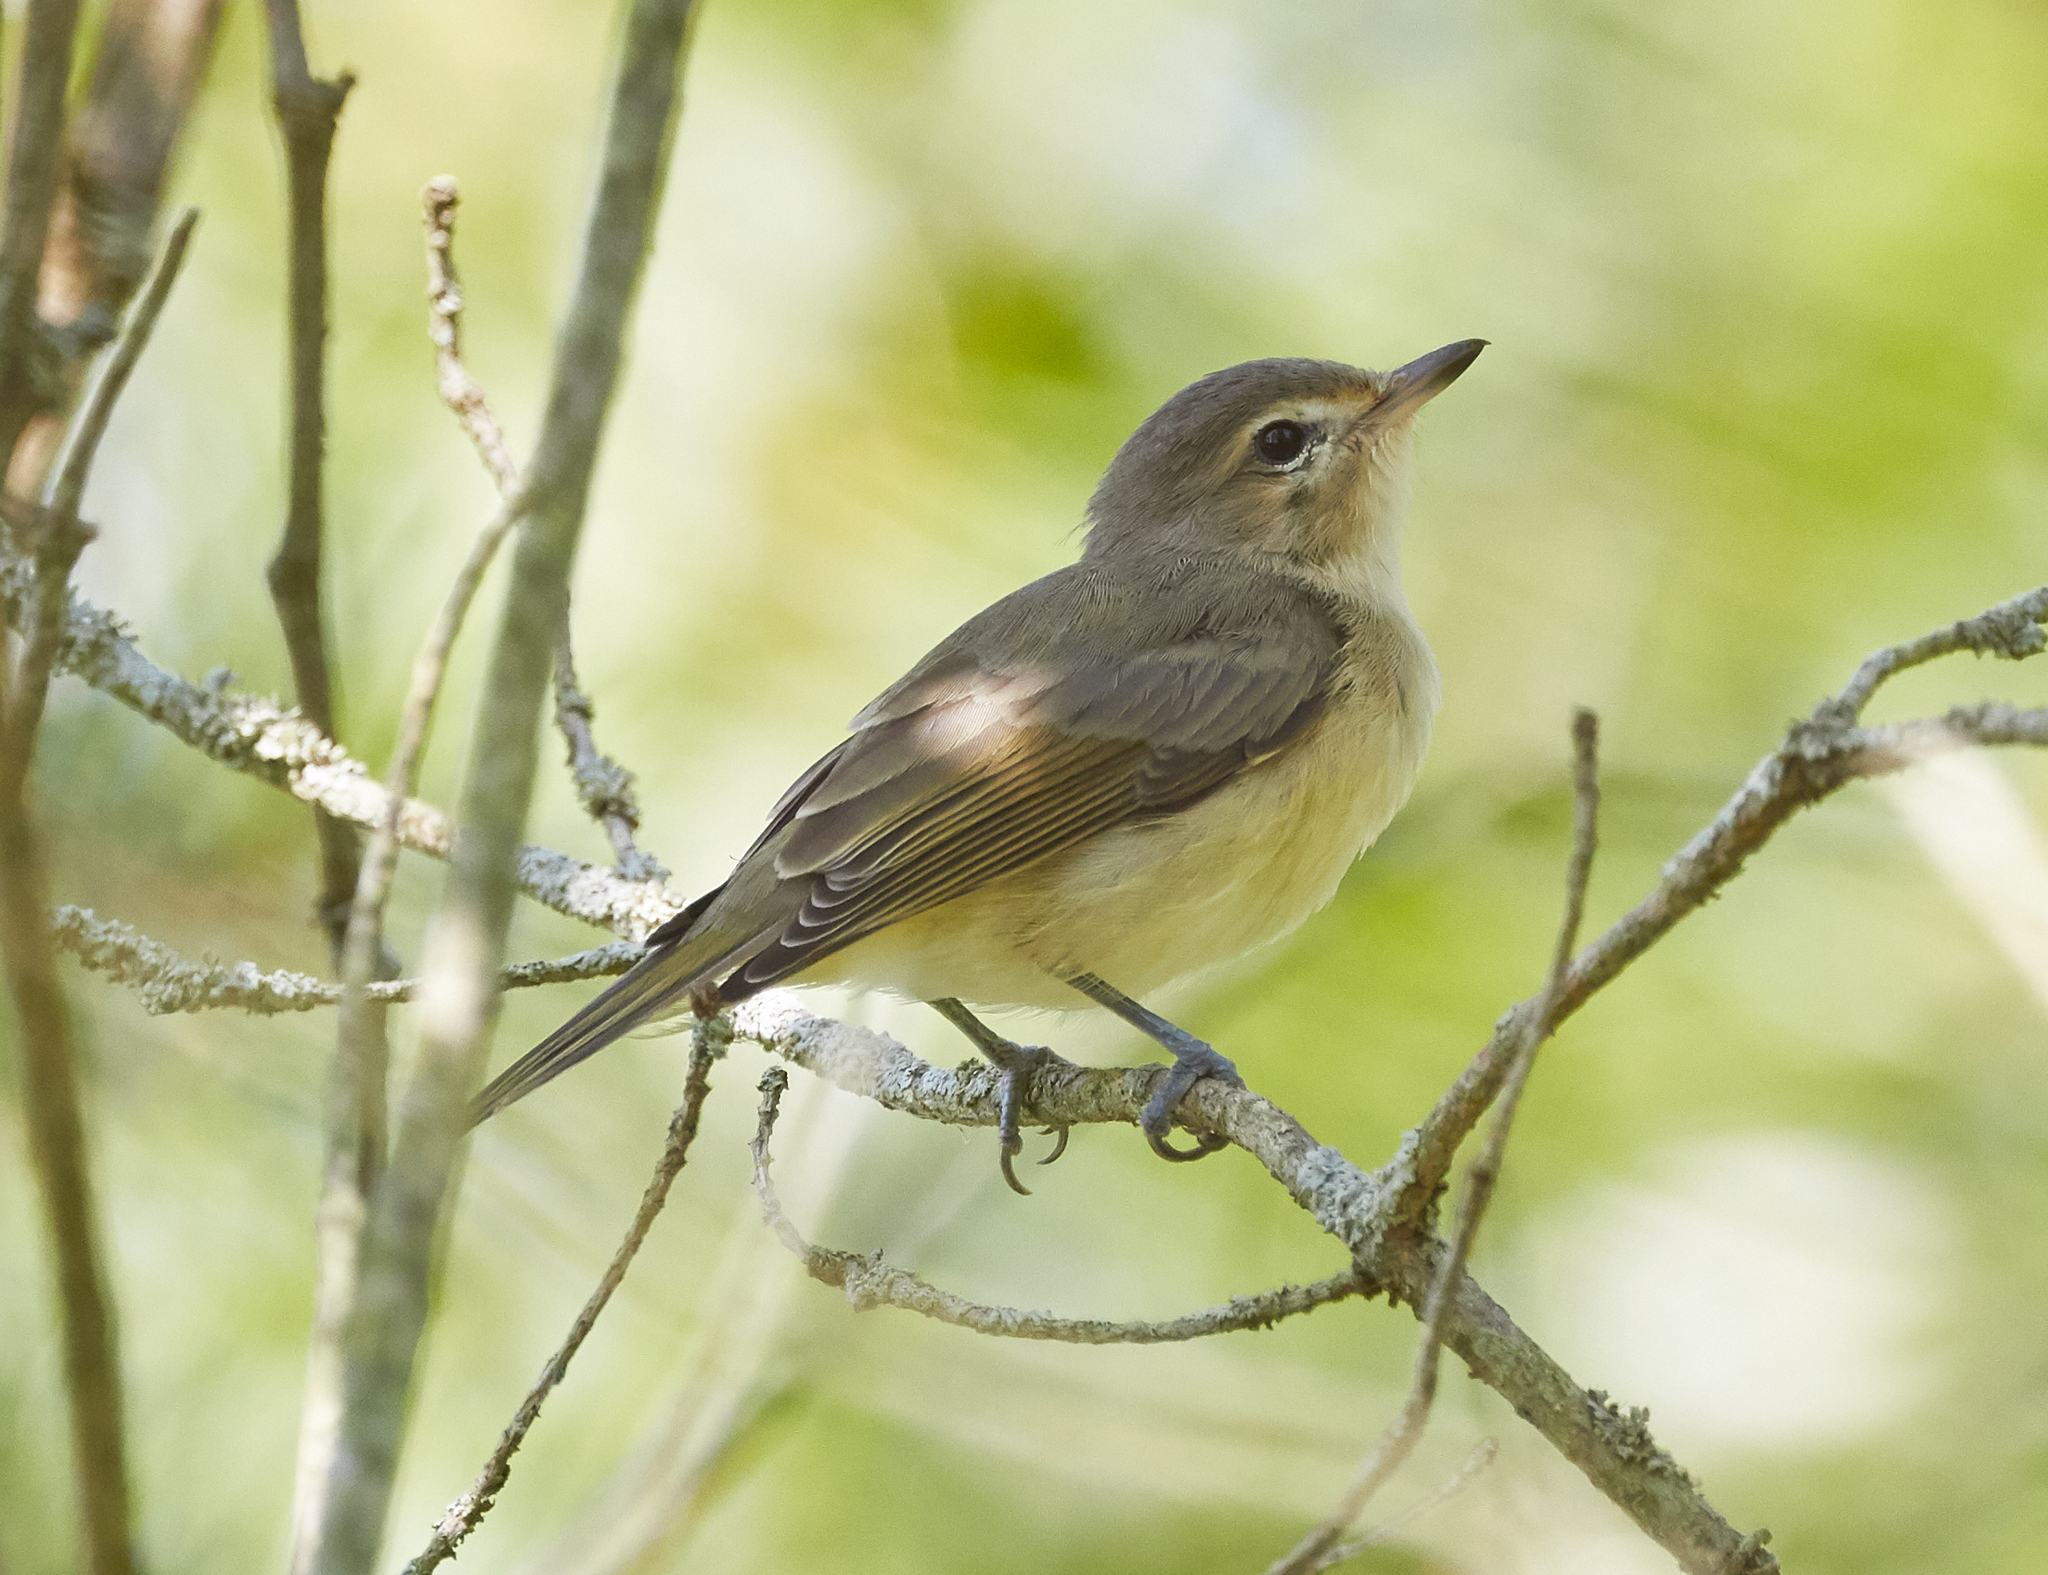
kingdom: Animalia
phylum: Chordata
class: Aves
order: Passeriformes
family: Vireonidae
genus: Vireo
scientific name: Vireo gilvus
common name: Warbling vireo
